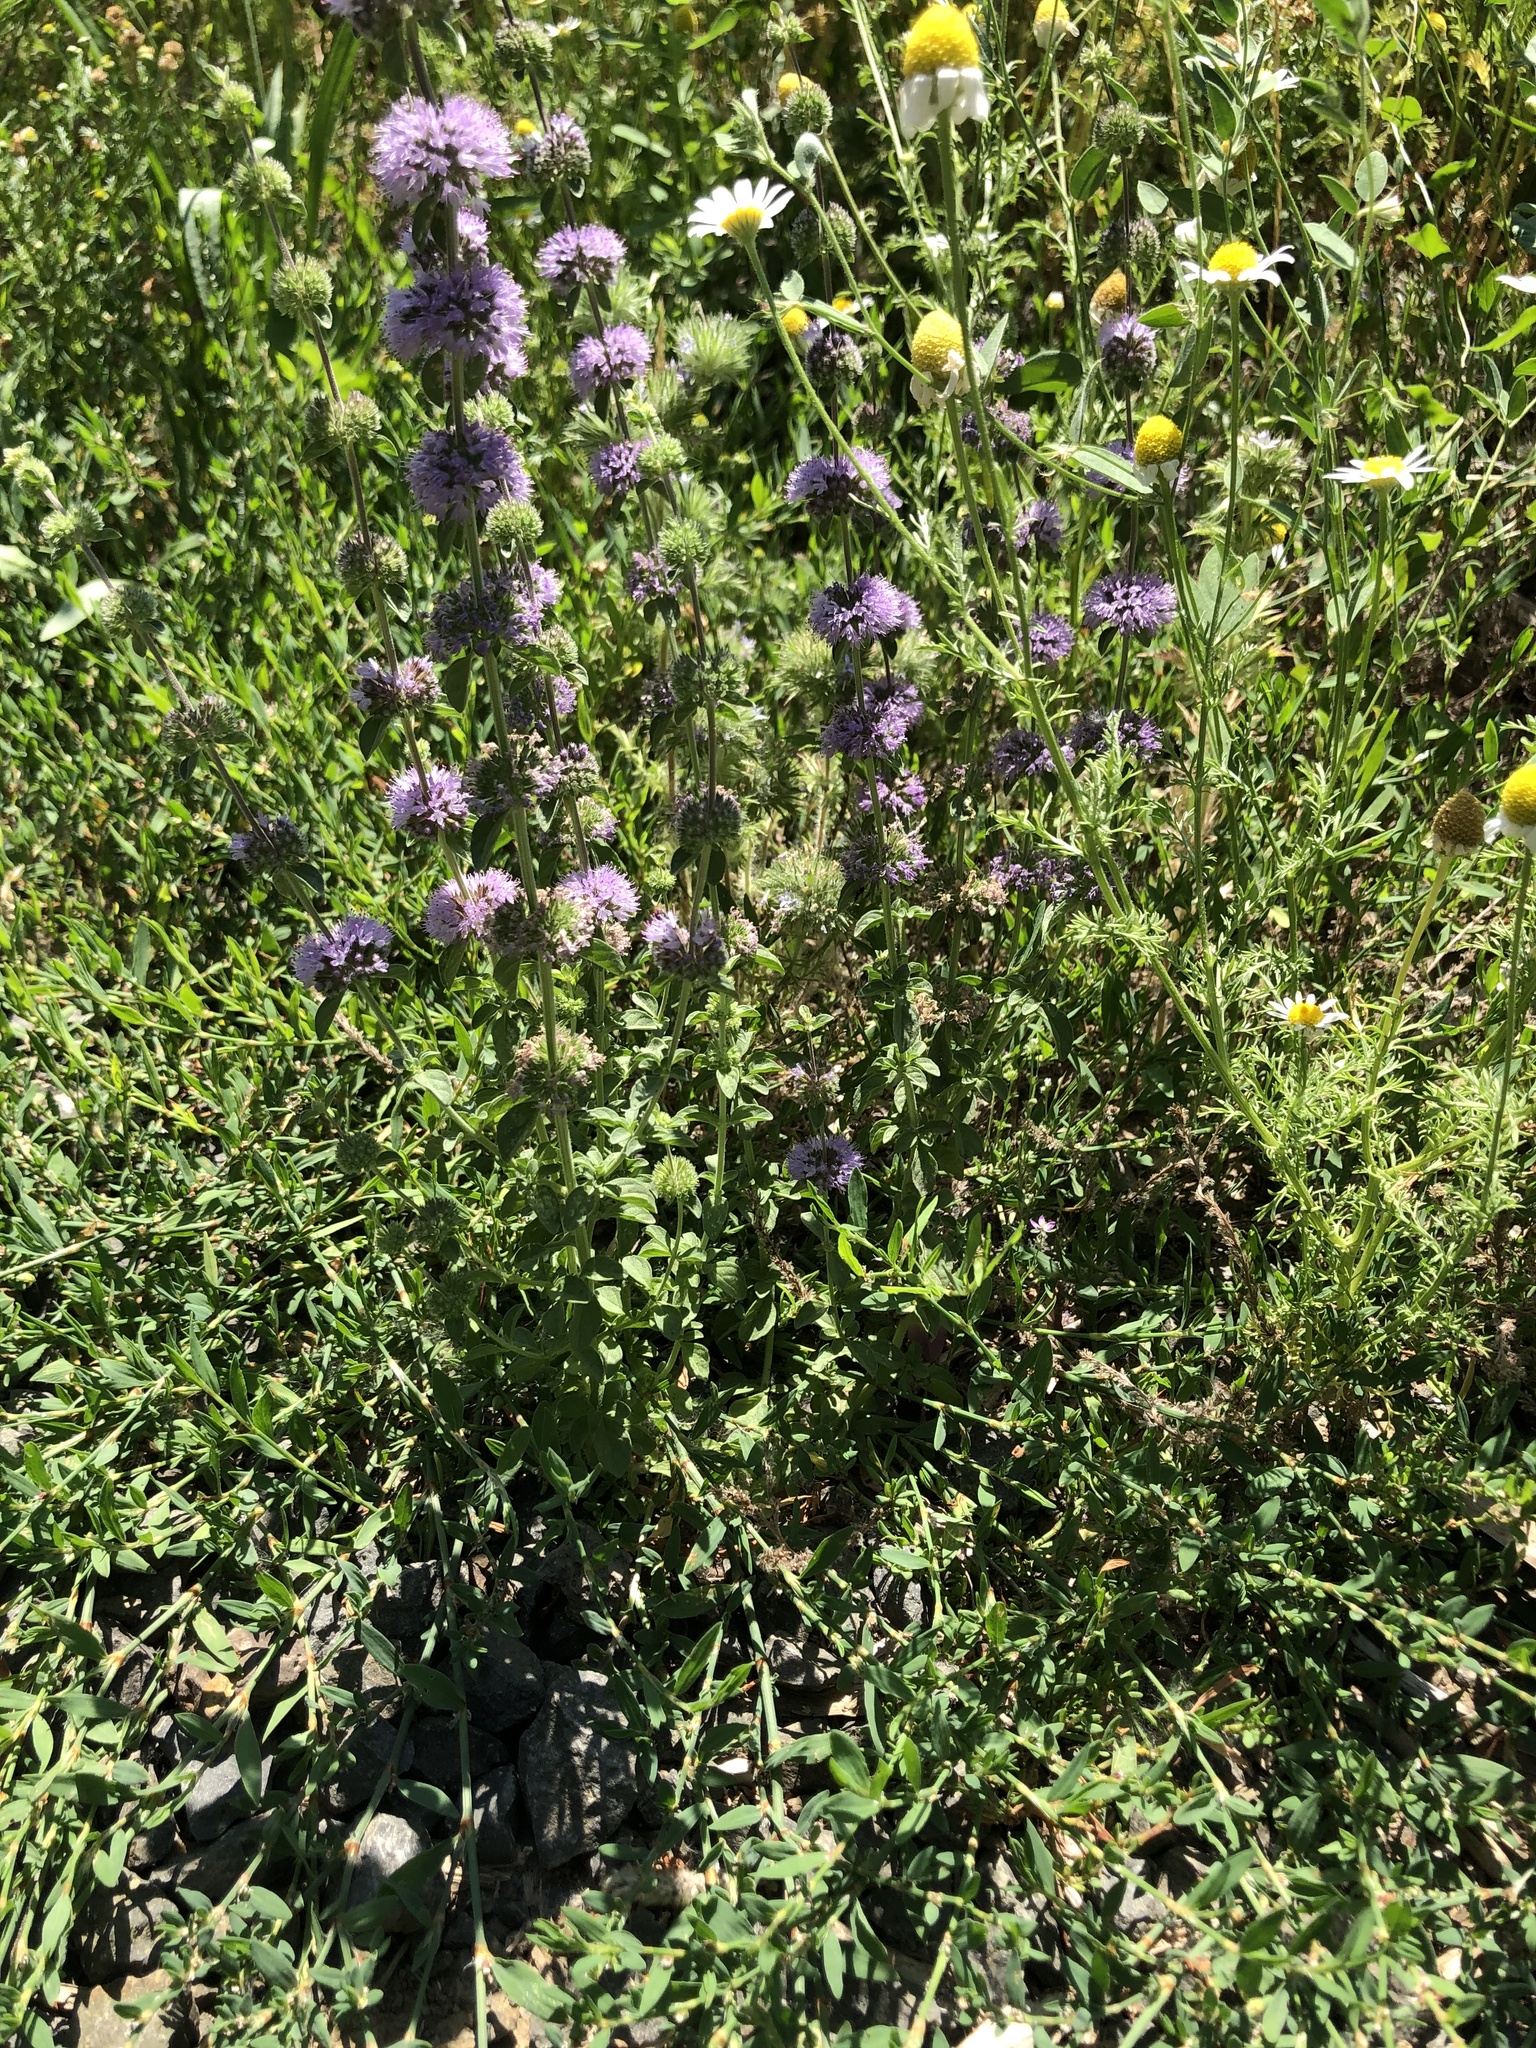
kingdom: Plantae
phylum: Tracheophyta
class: Magnoliopsida
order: Lamiales
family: Lamiaceae
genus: Mentha
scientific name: Mentha pulegium
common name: Pennyroyal
